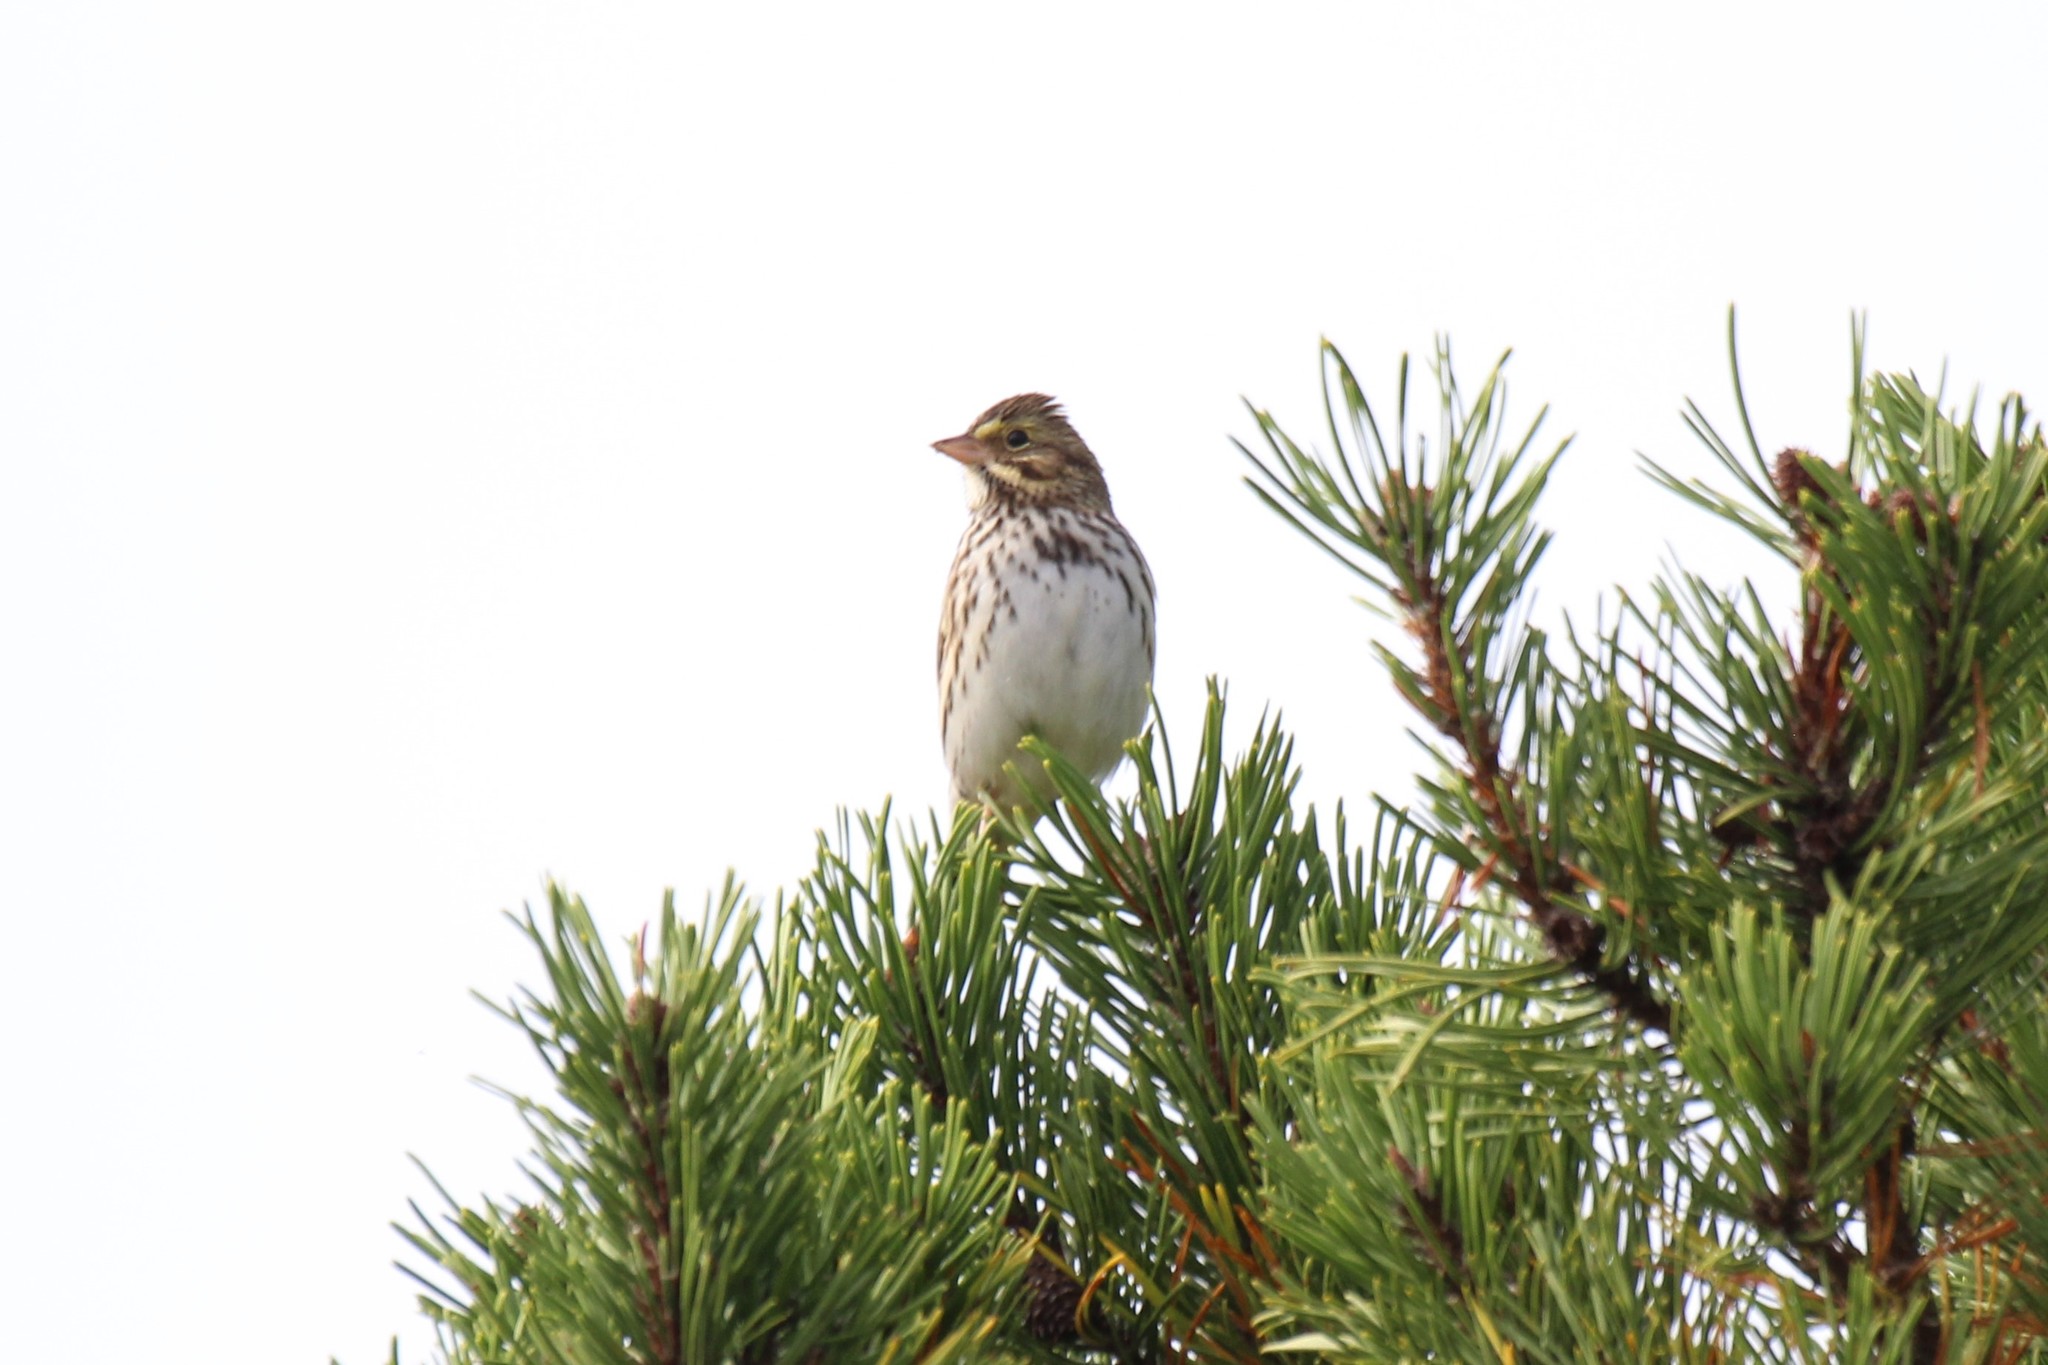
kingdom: Animalia
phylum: Chordata
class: Aves
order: Passeriformes
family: Passerellidae
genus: Passerculus
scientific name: Passerculus sandwichensis
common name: Savannah sparrow
